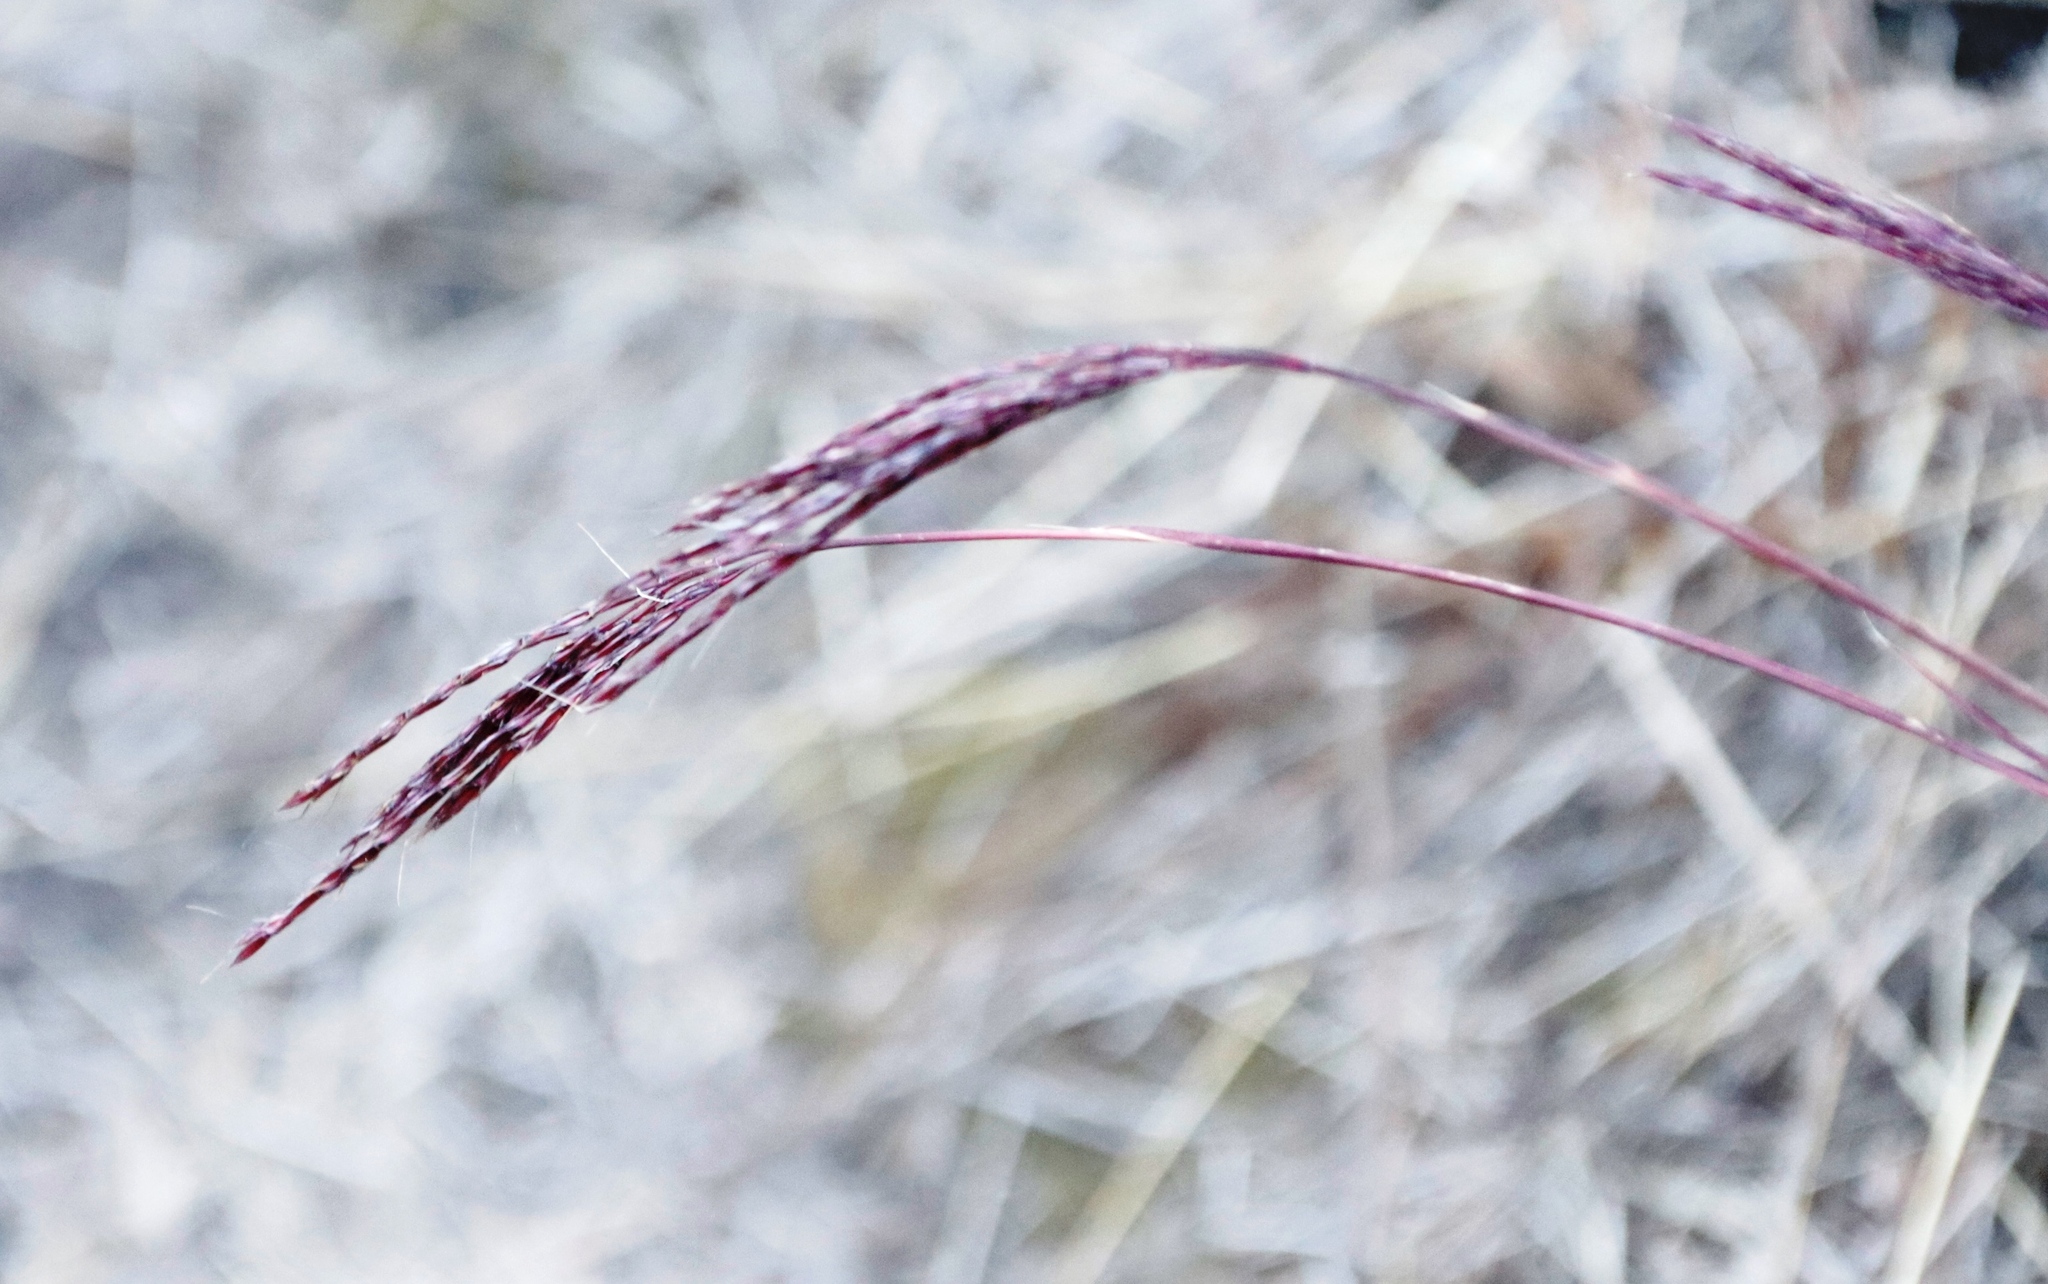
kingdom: Plantae
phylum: Tracheophyta
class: Liliopsida
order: Poales
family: Poaceae
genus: Andropogon
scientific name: Andropogon appendiculatus
